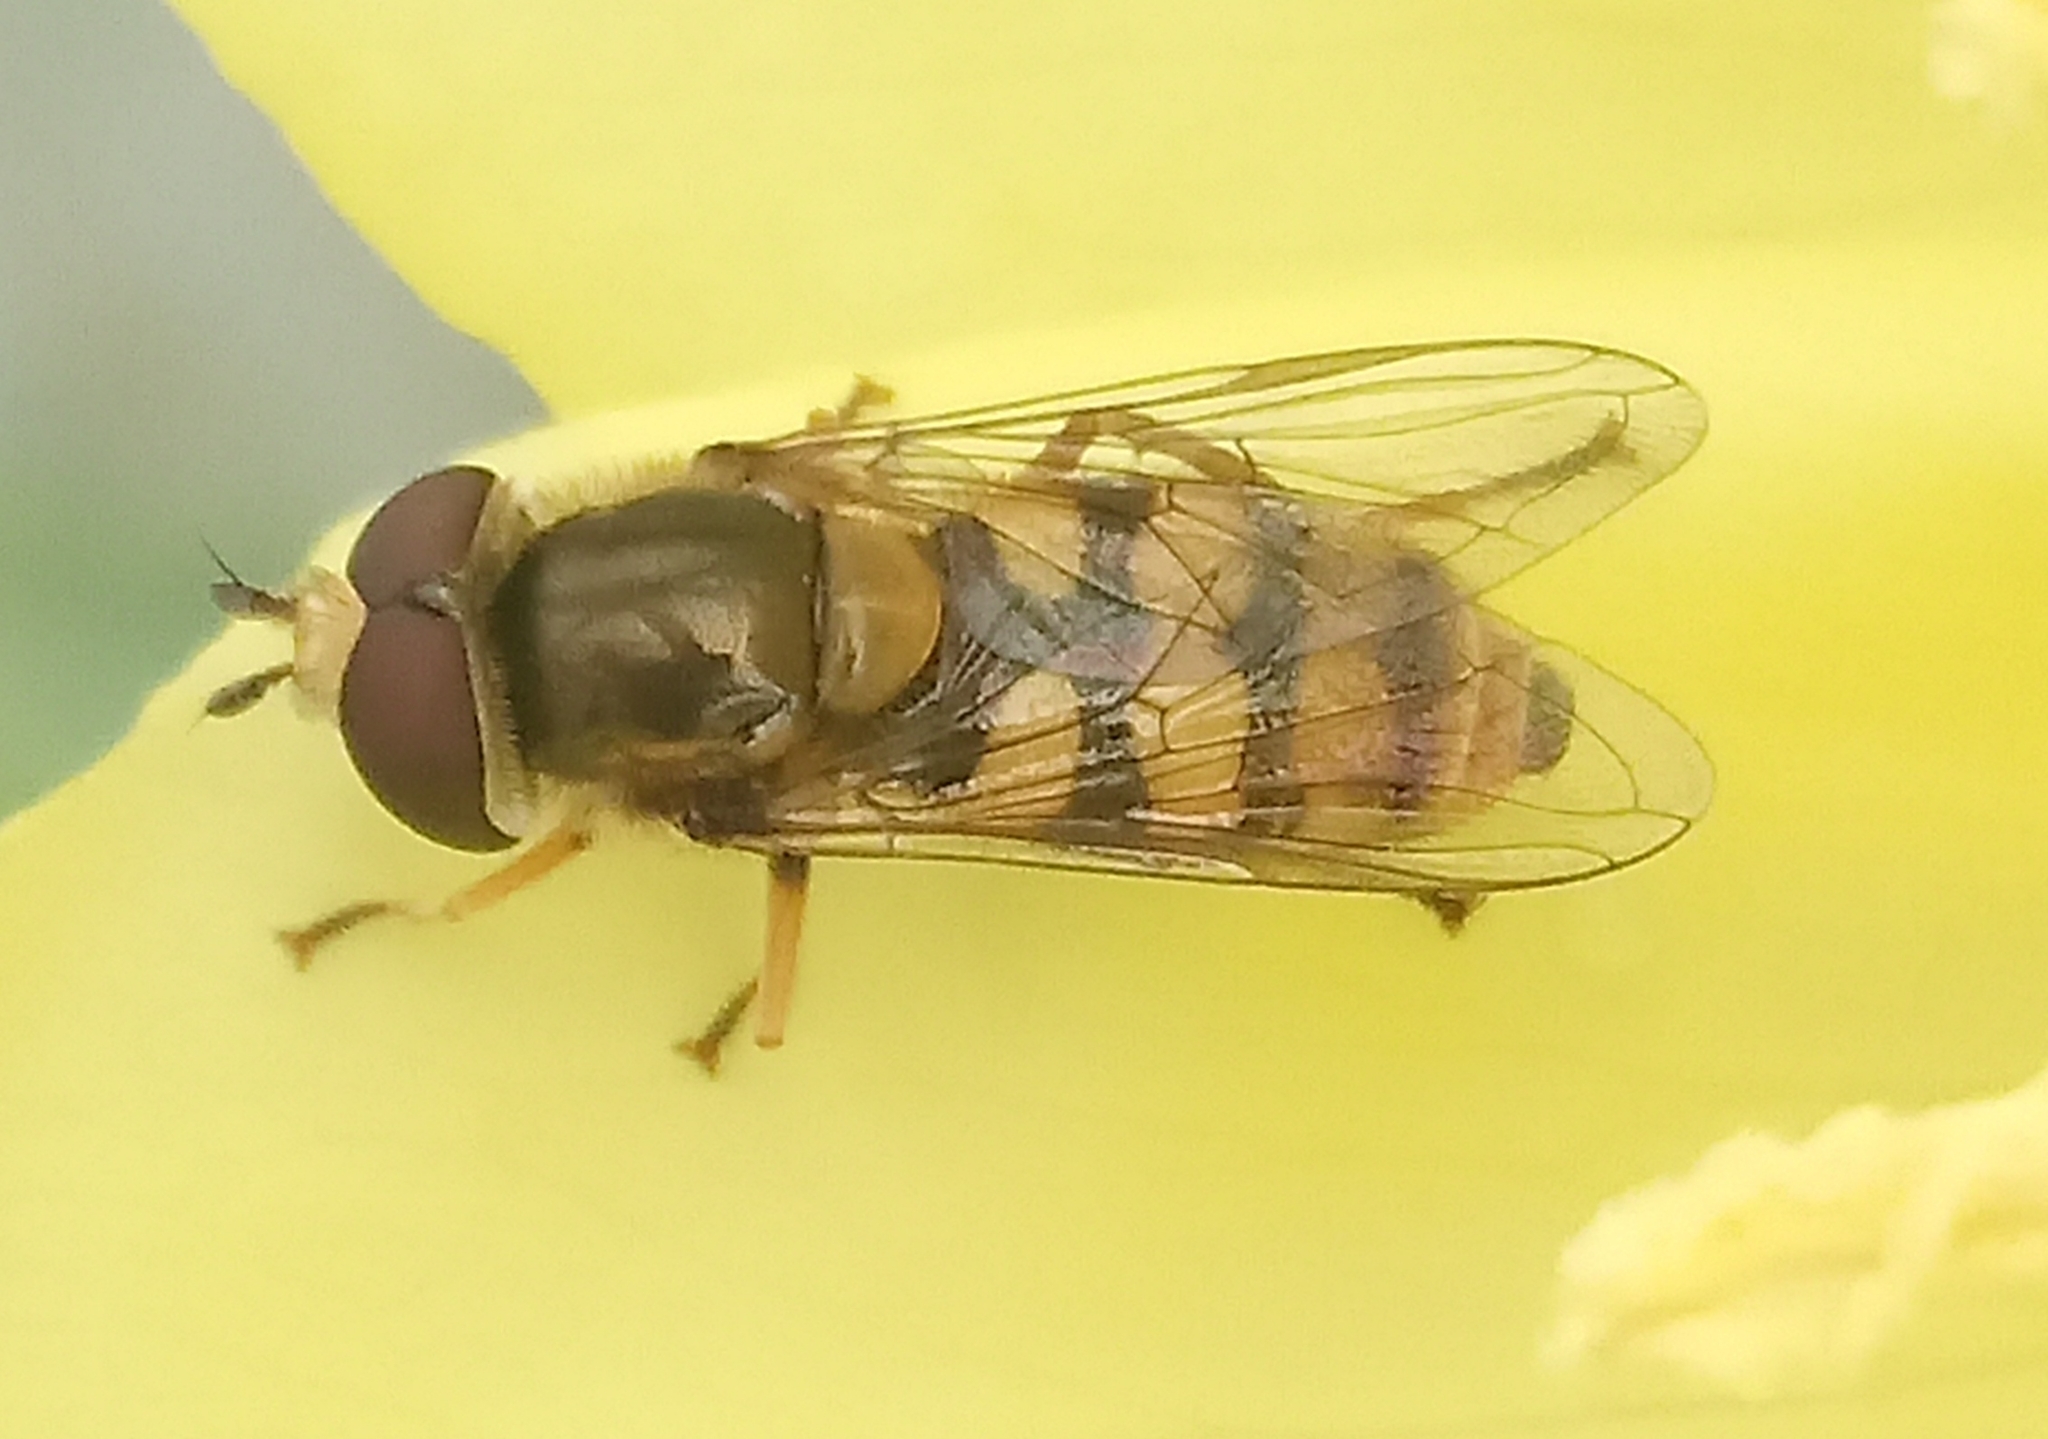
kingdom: Animalia
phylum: Arthropoda
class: Insecta
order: Diptera
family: Syrphidae
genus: Eupeodes
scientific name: Eupeodes corollae
